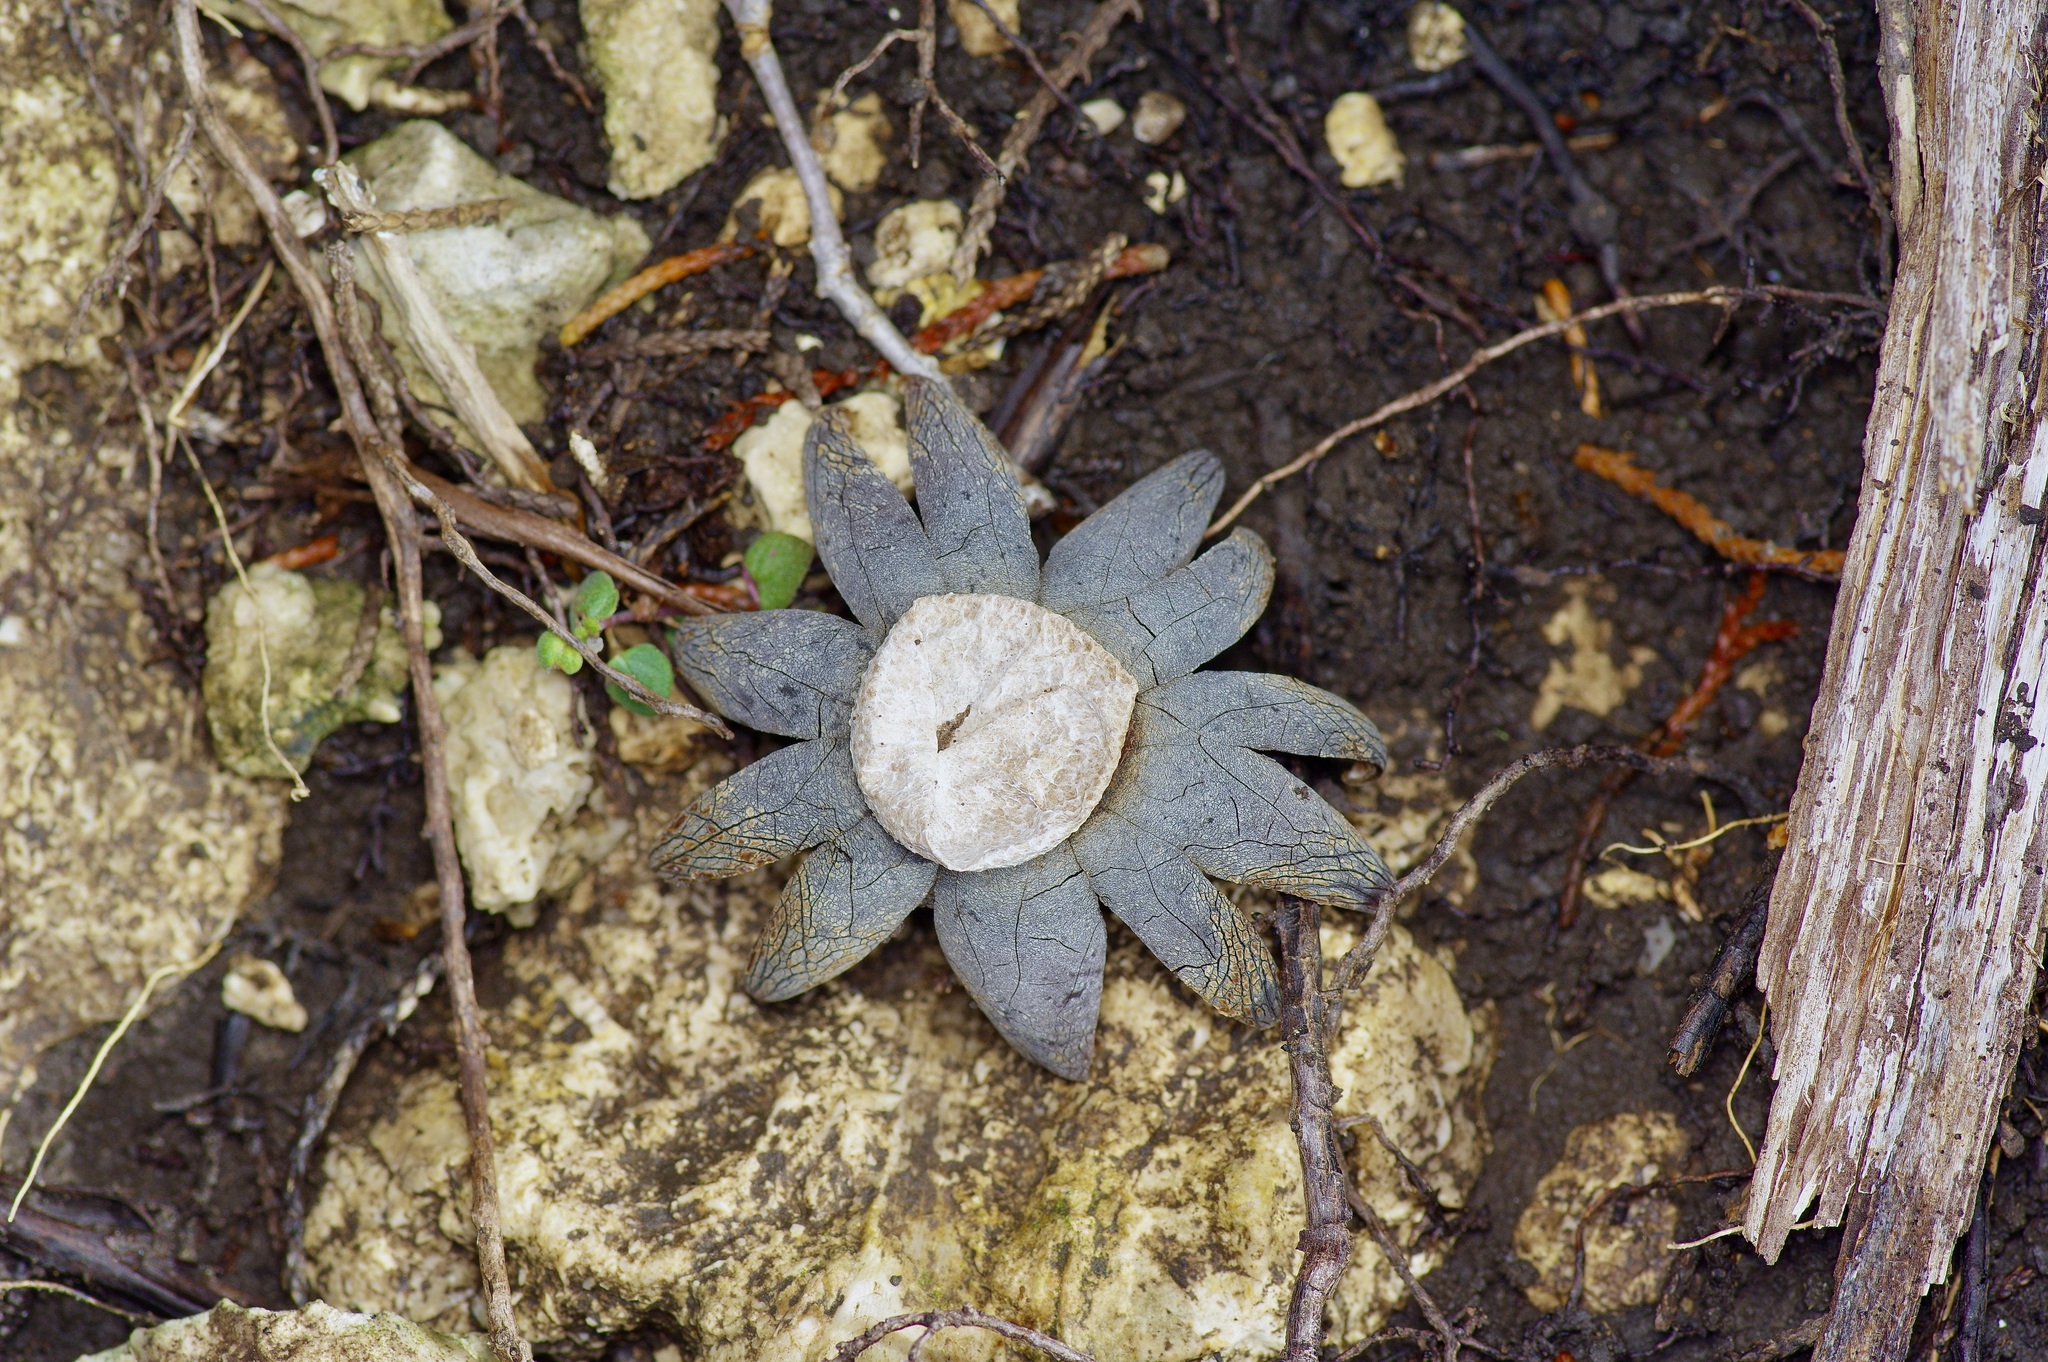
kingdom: Fungi
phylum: Basidiomycota
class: Agaricomycetes
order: Boletales
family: Diplocystidiaceae
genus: Astraeus
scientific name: Astraeus morganii
